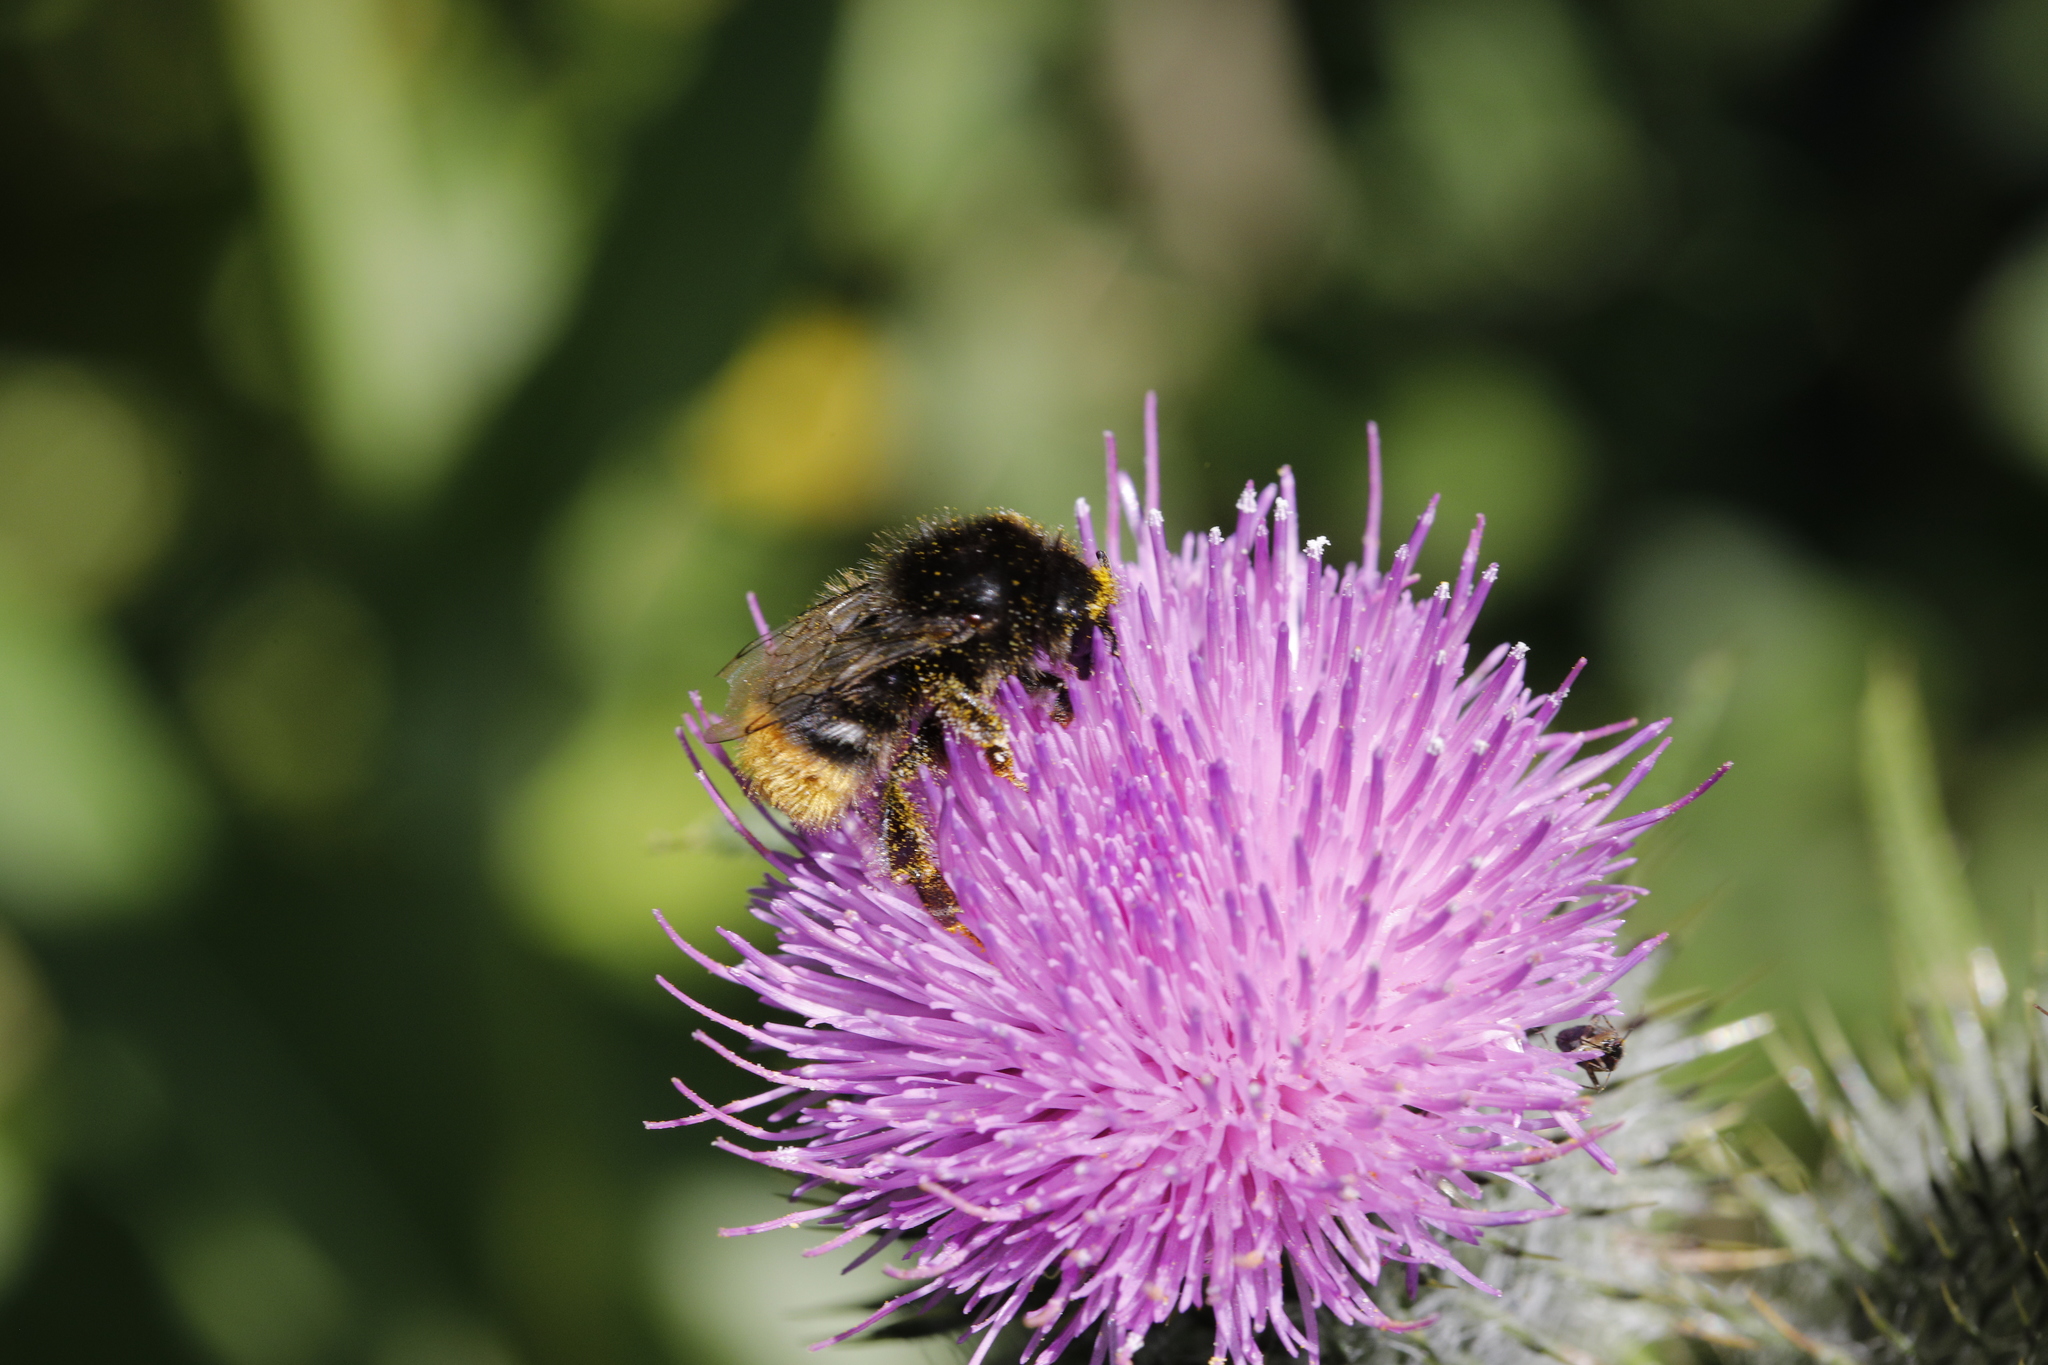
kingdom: Animalia
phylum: Arthropoda
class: Insecta
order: Hymenoptera
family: Apidae
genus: Bombus
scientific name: Bombus lapidarius
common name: Large red-tailed humble-bee
